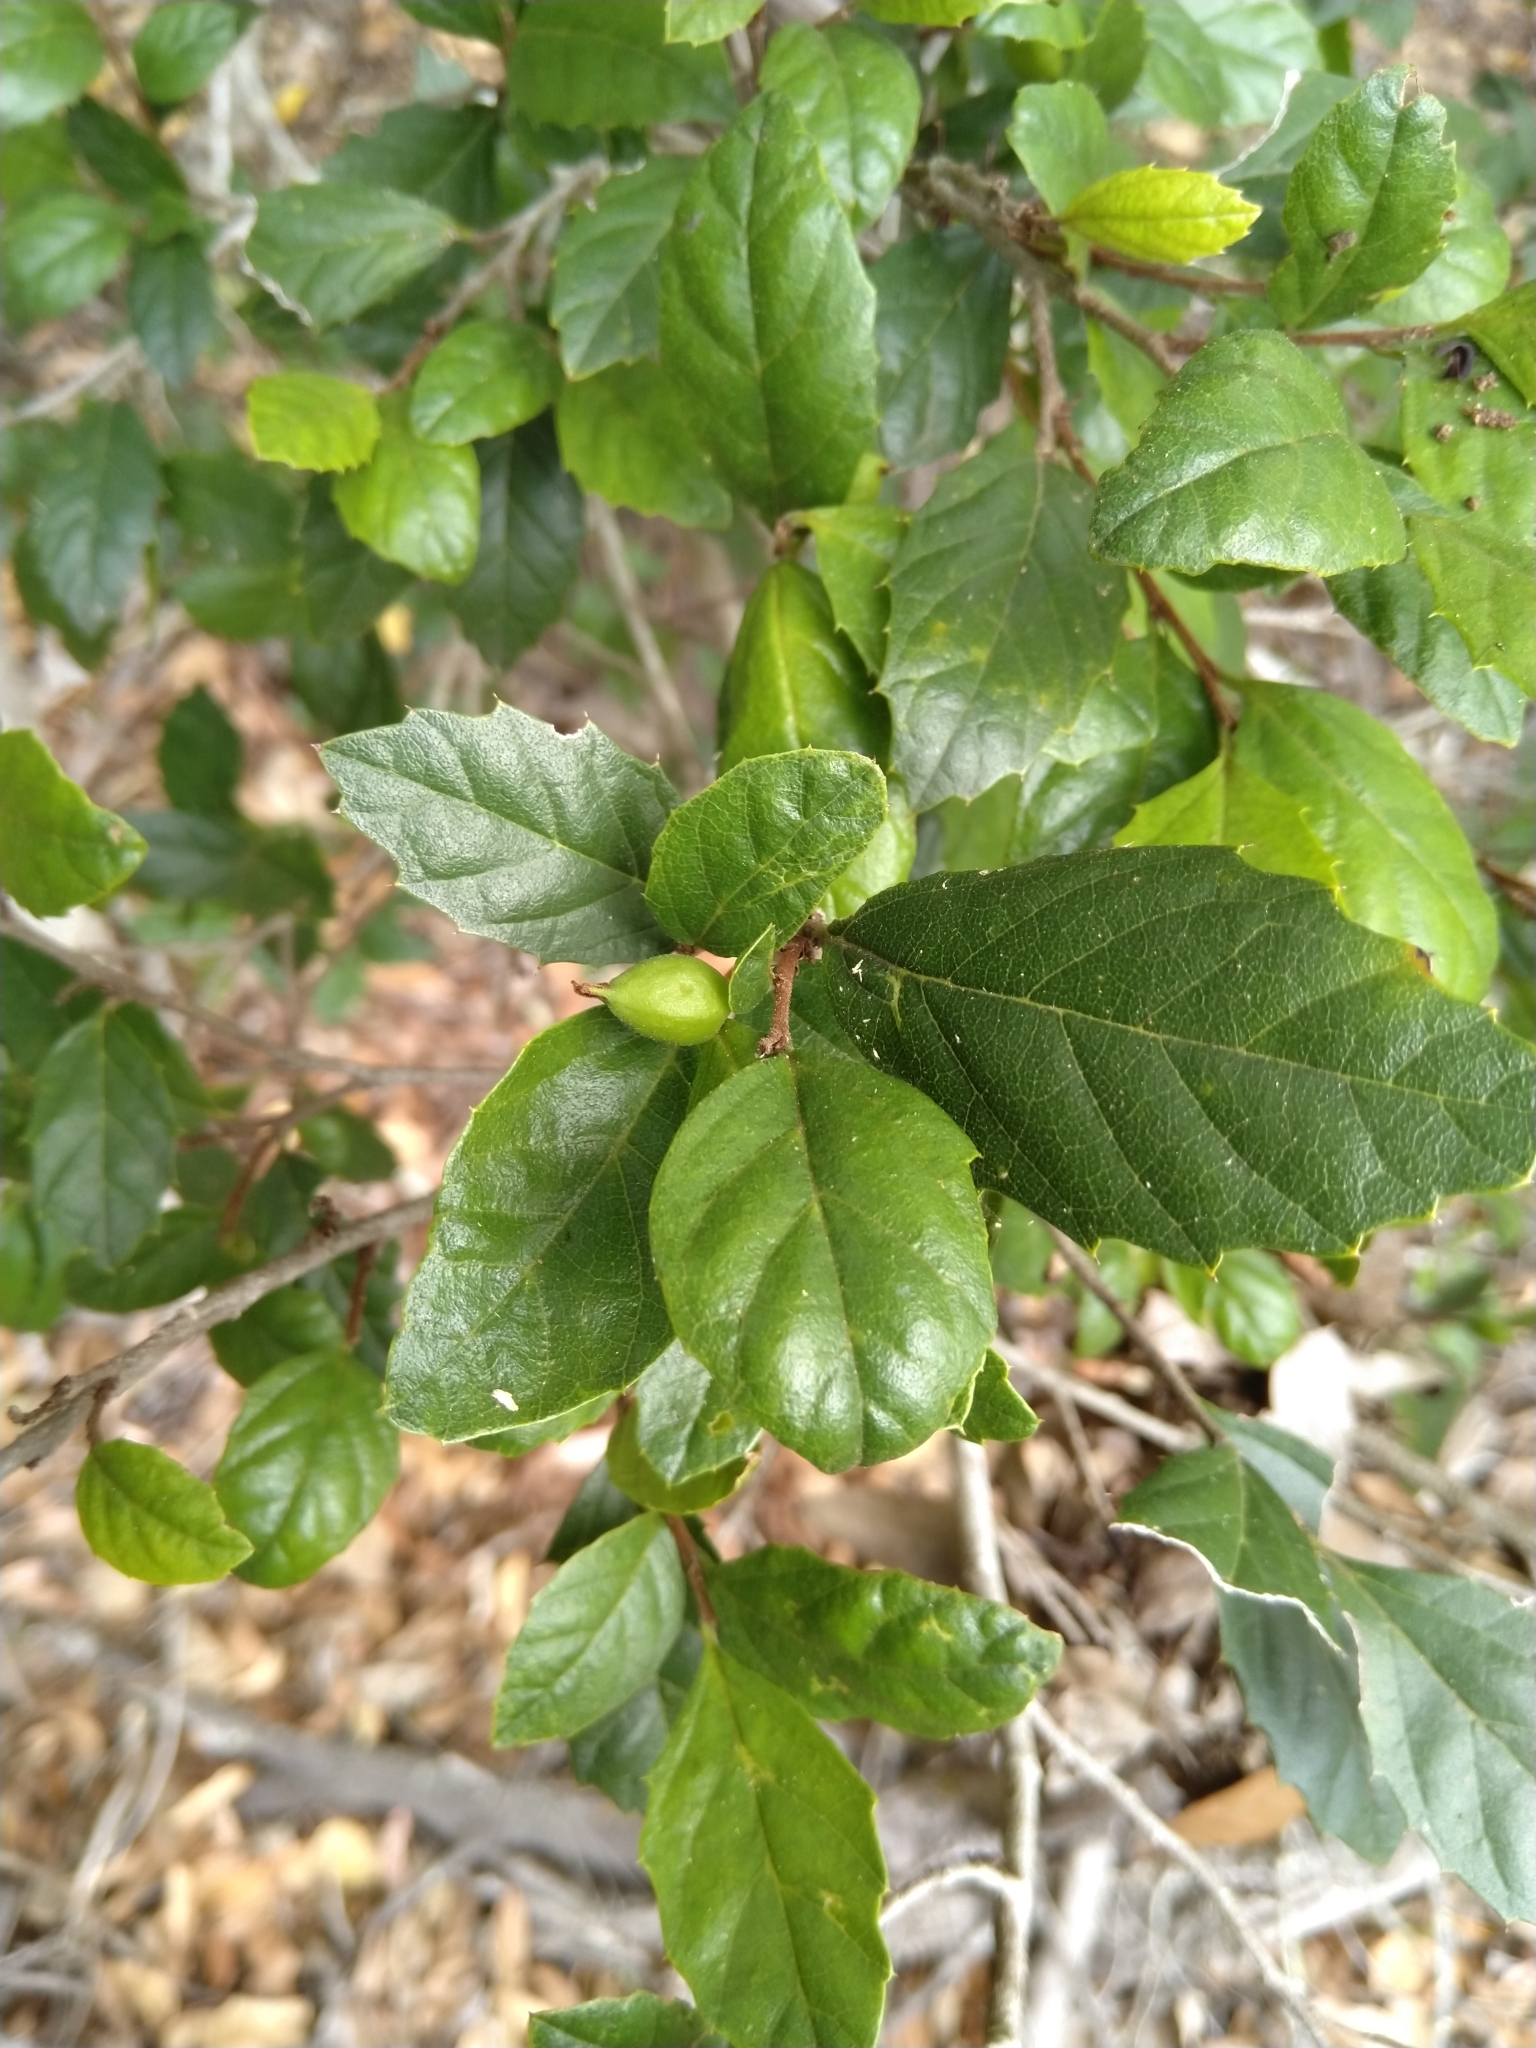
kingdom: Plantae
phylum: Tracheophyta
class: Magnoliopsida
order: Rosales
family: Cannabaceae
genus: Aphananthe
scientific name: Aphananthe philippinensis
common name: Wild holly
